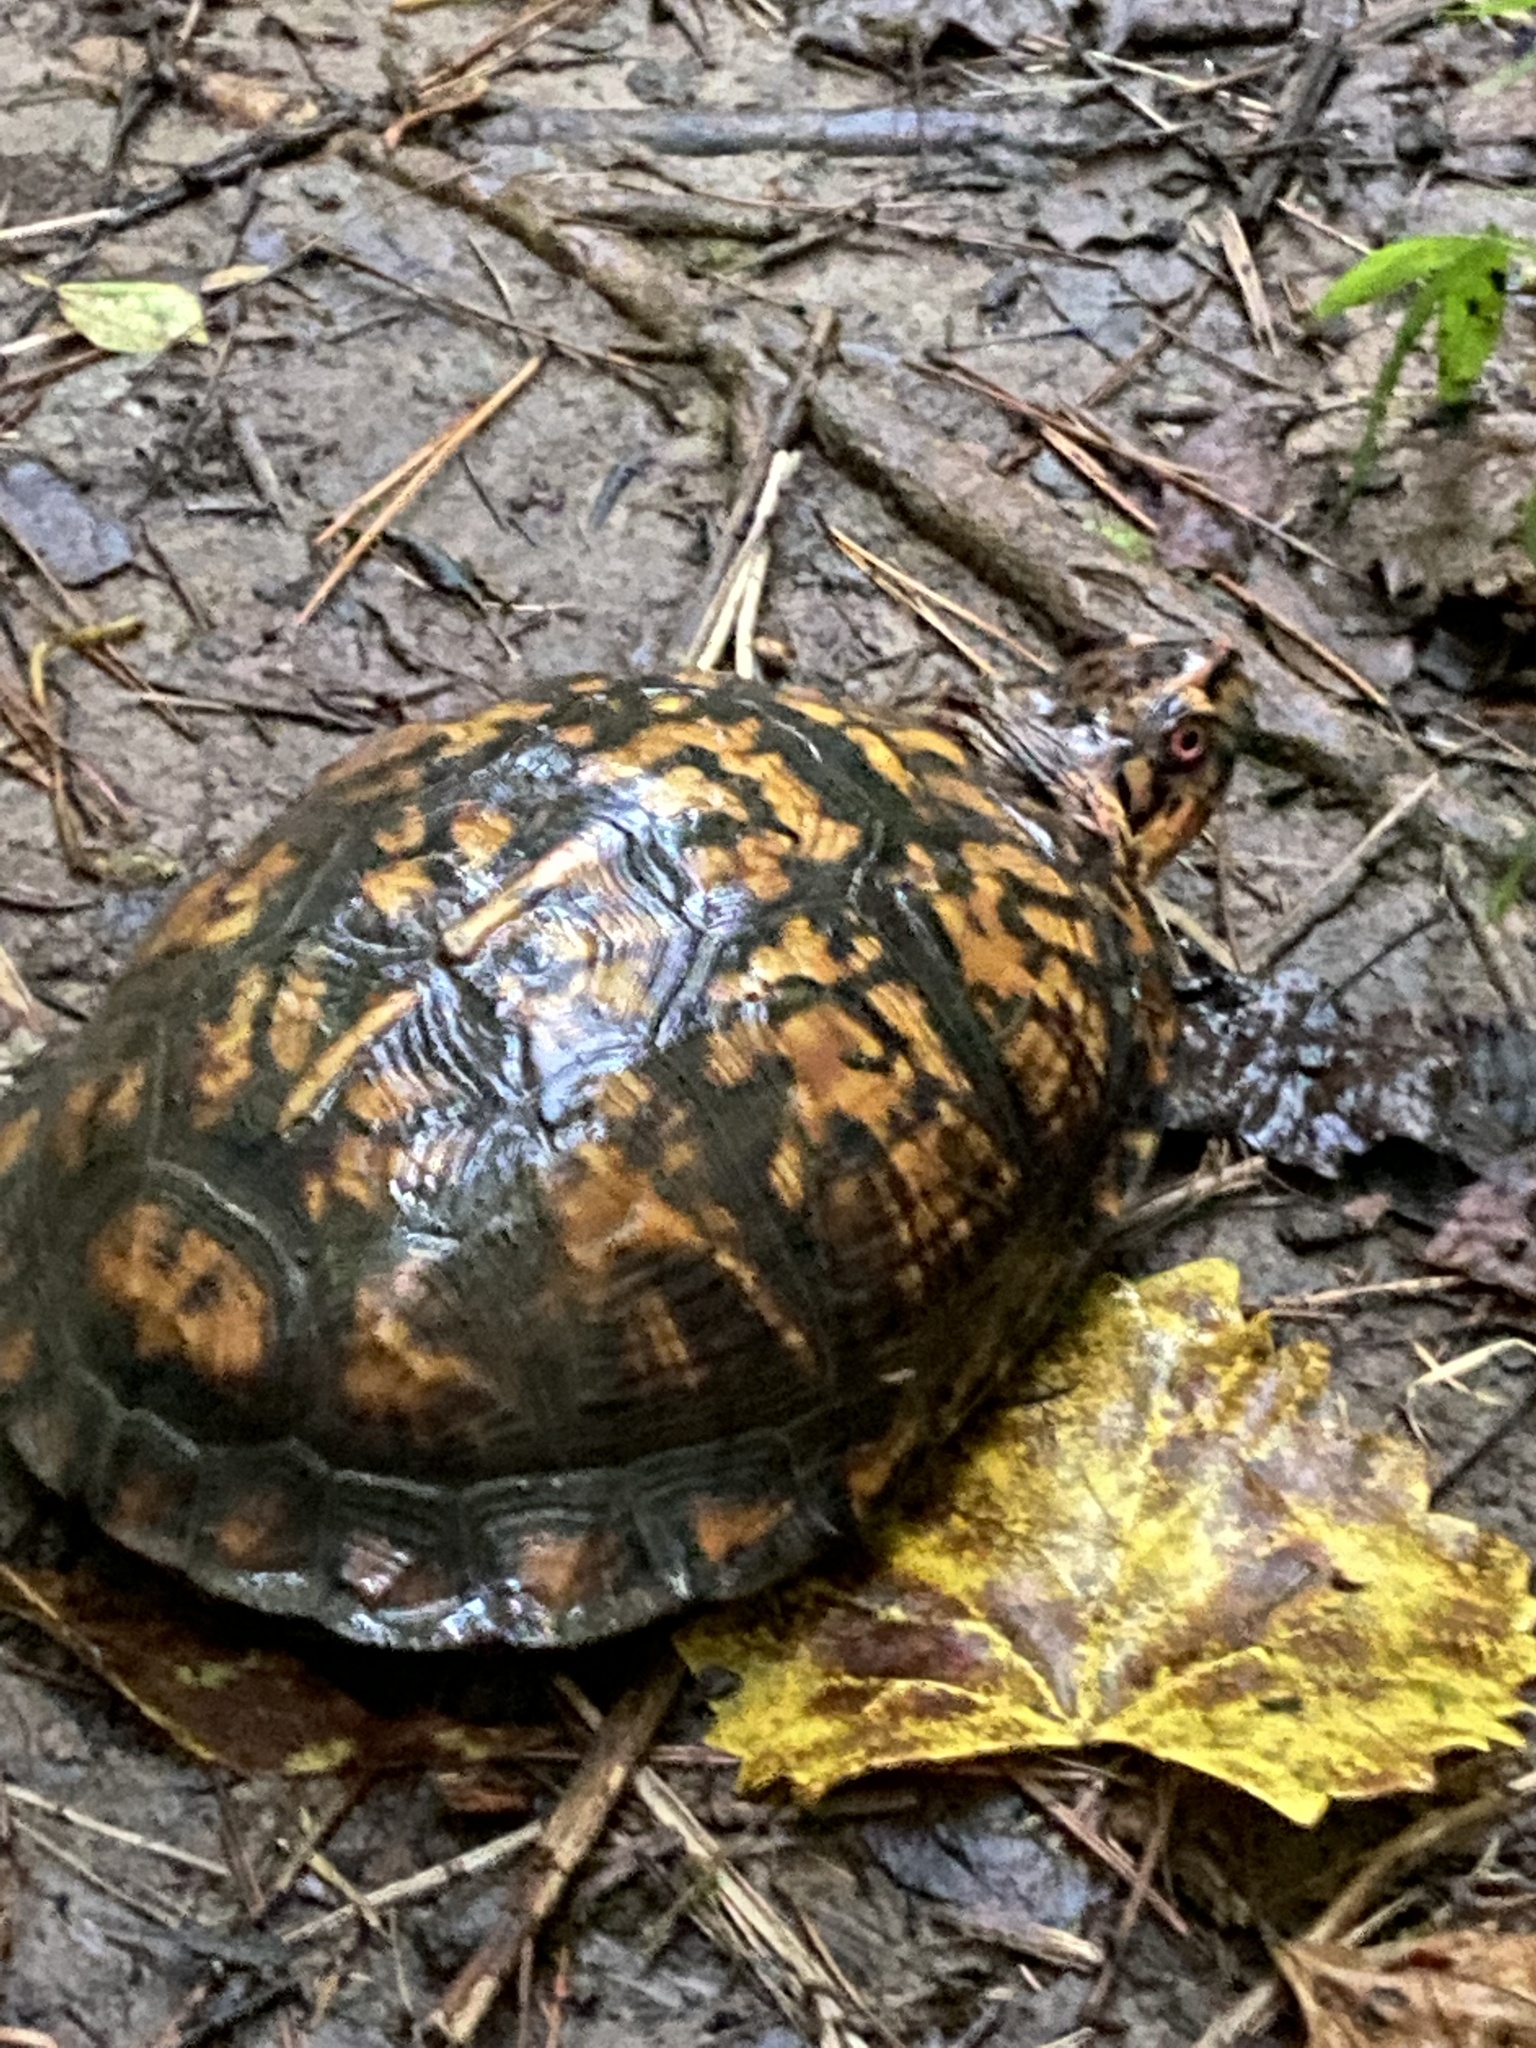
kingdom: Animalia
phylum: Chordata
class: Testudines
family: Emydidae
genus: Terrapene
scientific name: Terrapene carolina
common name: Common box turtle
